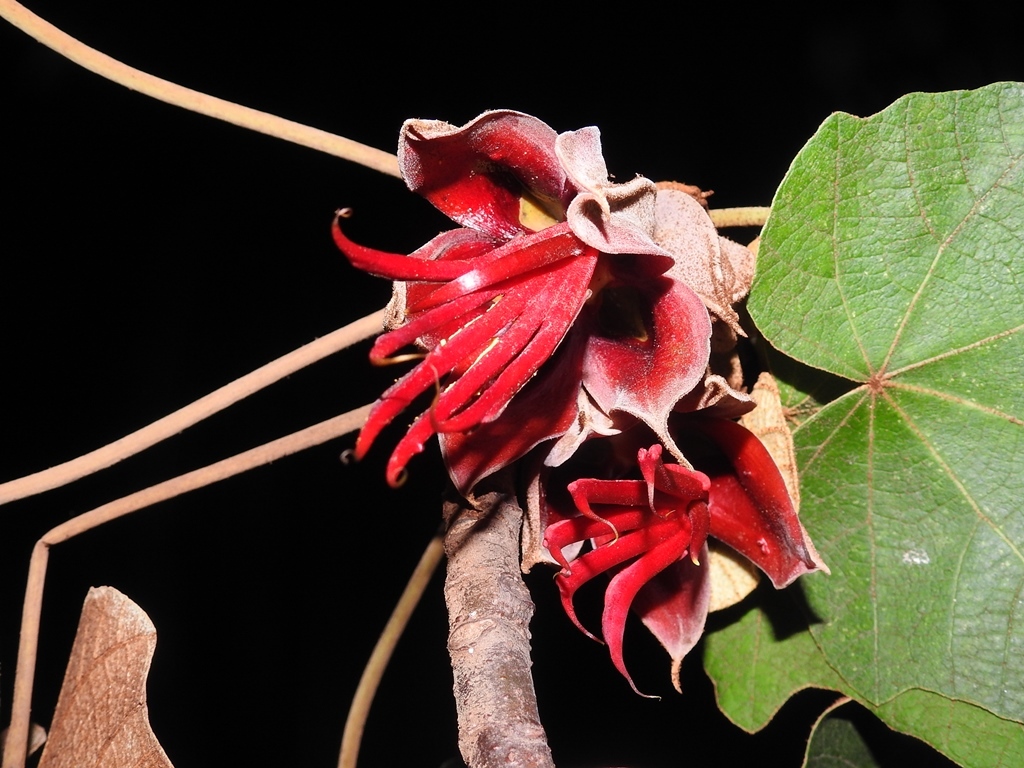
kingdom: Plantae
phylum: Tracheophyta
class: Magnoliopsida
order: Malvales
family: Malvaceae
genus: Chiranthodendron
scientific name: Chiranthodendron pentadactylon
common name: Mexican-hat-plant
